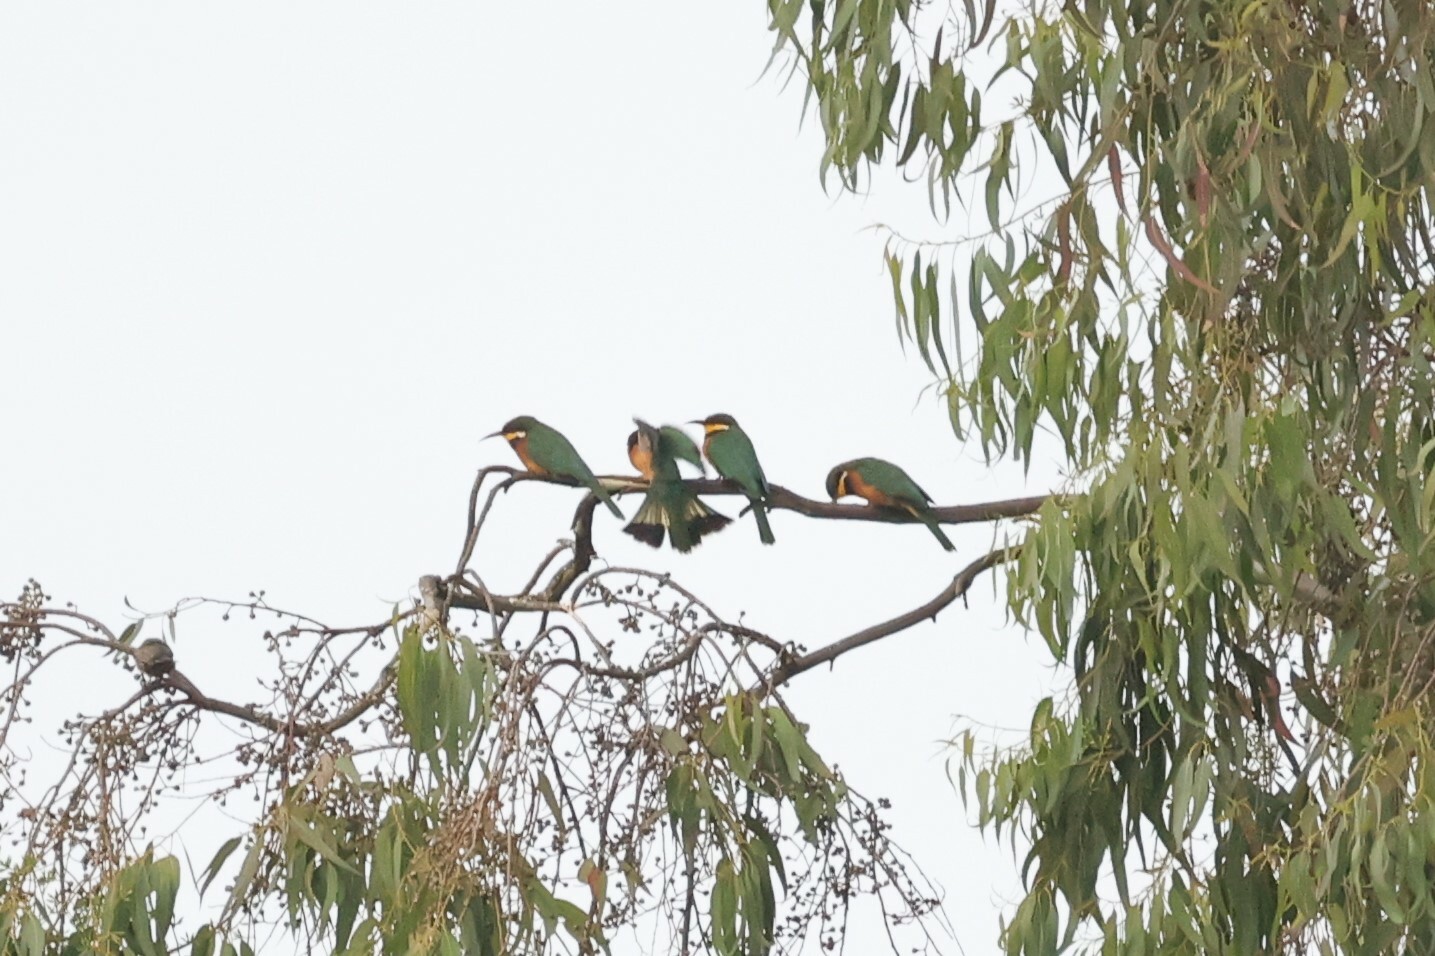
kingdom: Animalia
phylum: Chordata
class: Aves
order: Coraciiformes
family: Meropidae
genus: Merops
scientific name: Merops oreobates
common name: Cinnamon-chested bee-eater
